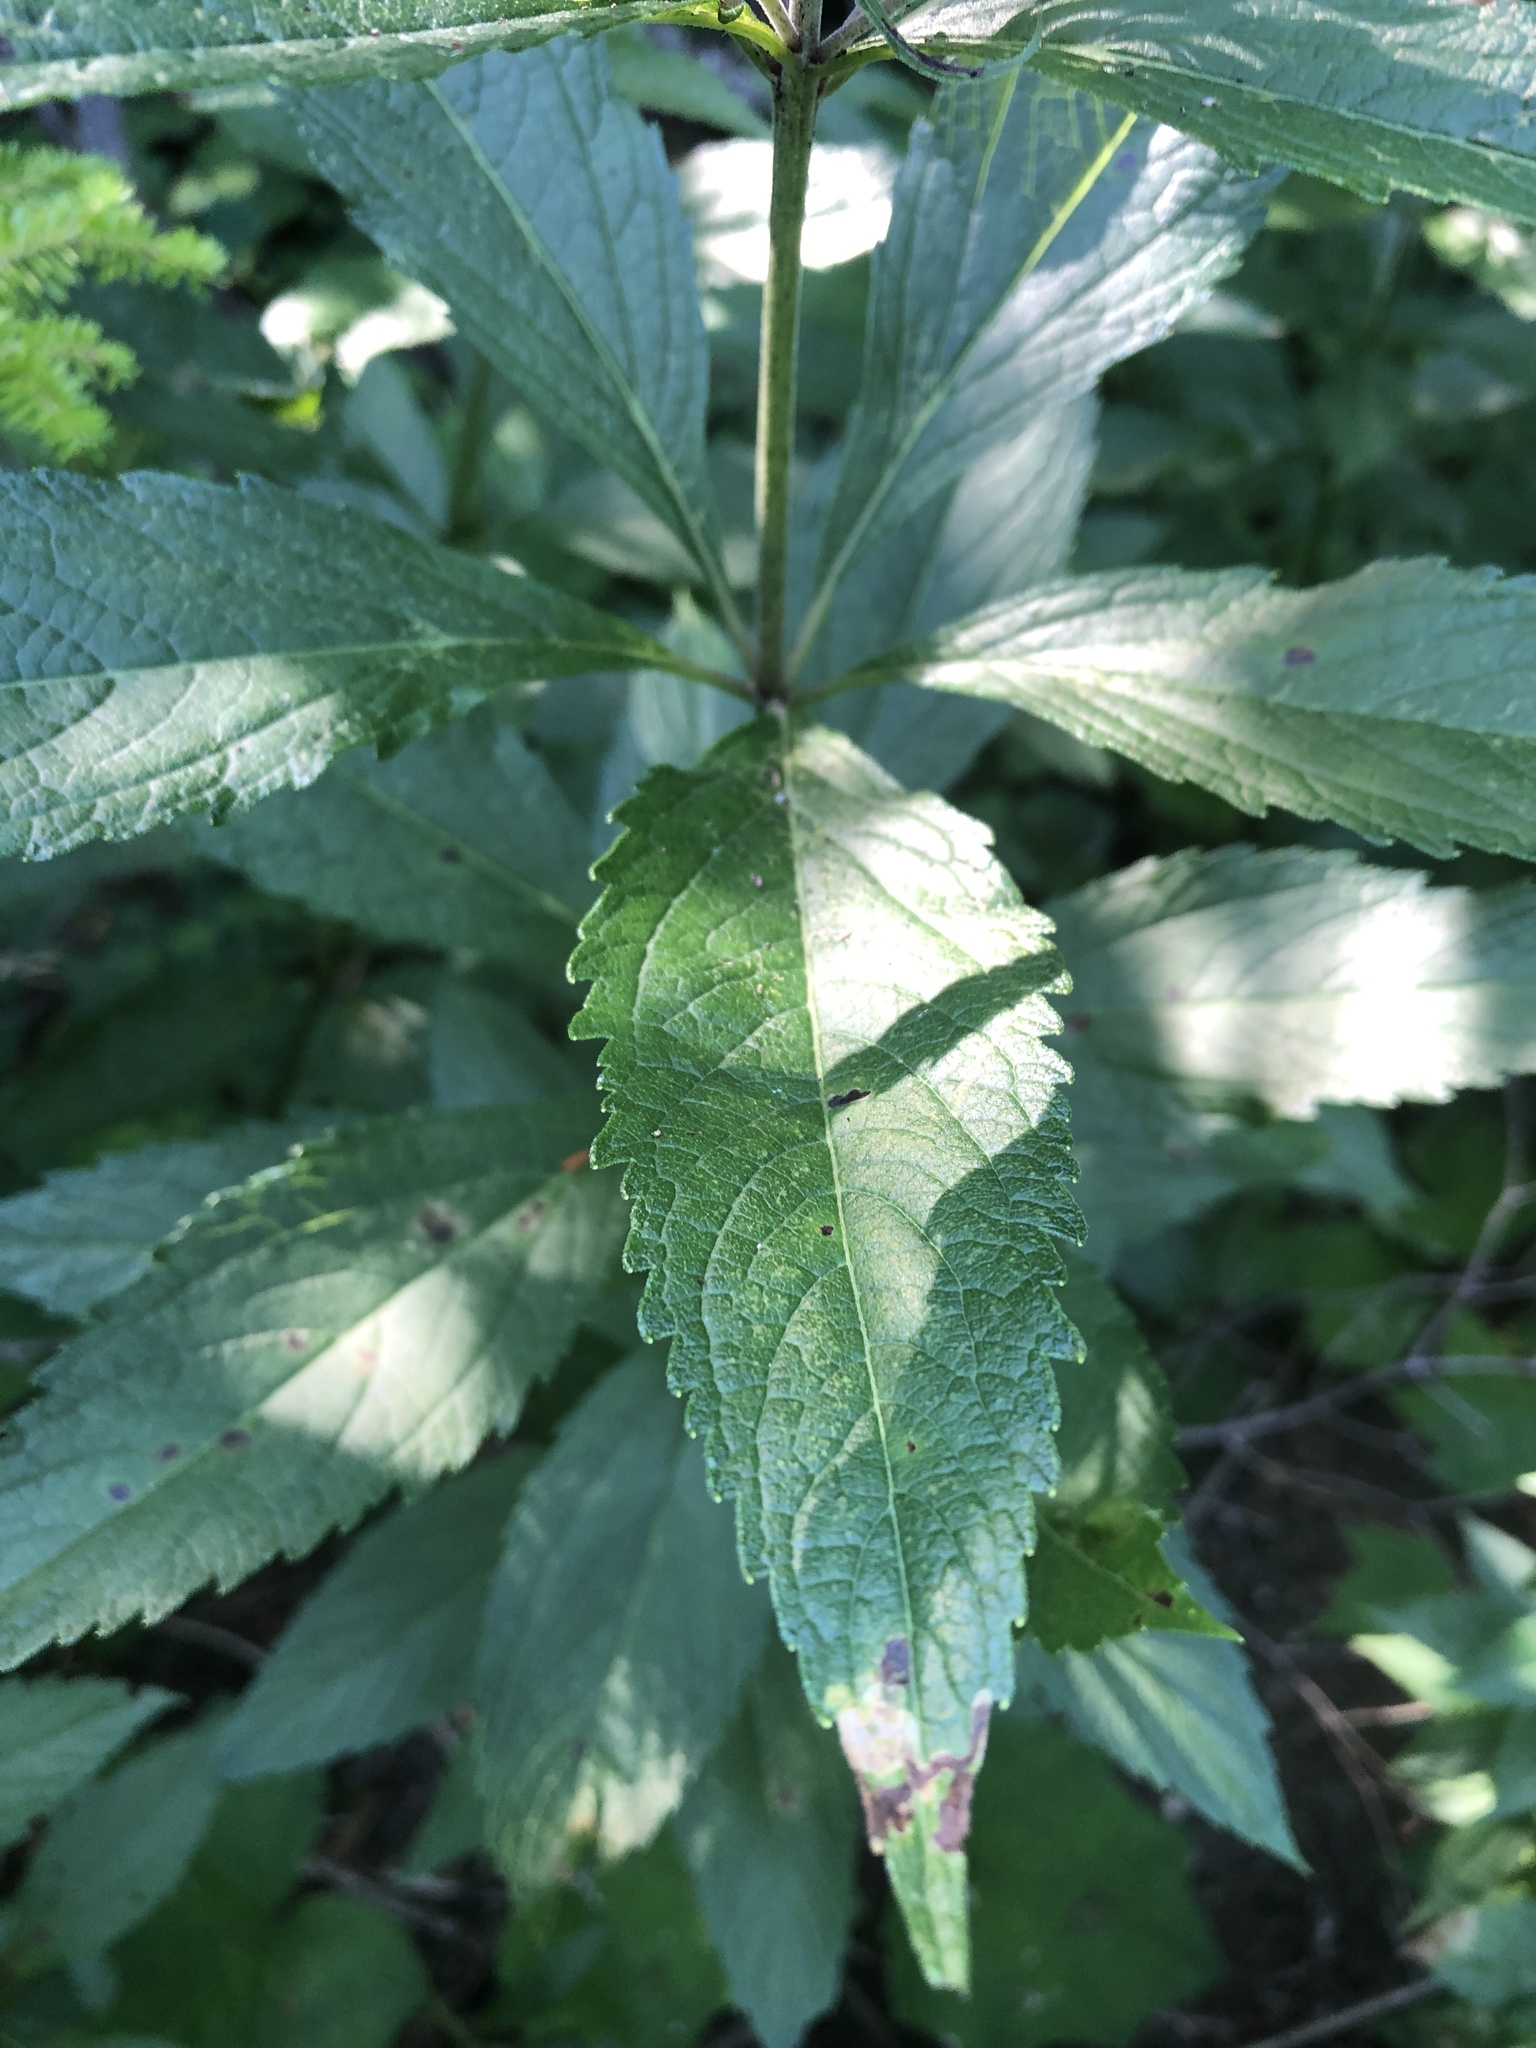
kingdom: Plantae
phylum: Tracheophyta
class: Magnoliopsida
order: Asterales
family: Asteraceae
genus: Eutrochium
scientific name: Eutrochium maculatum
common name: Spotted joe pye weed
